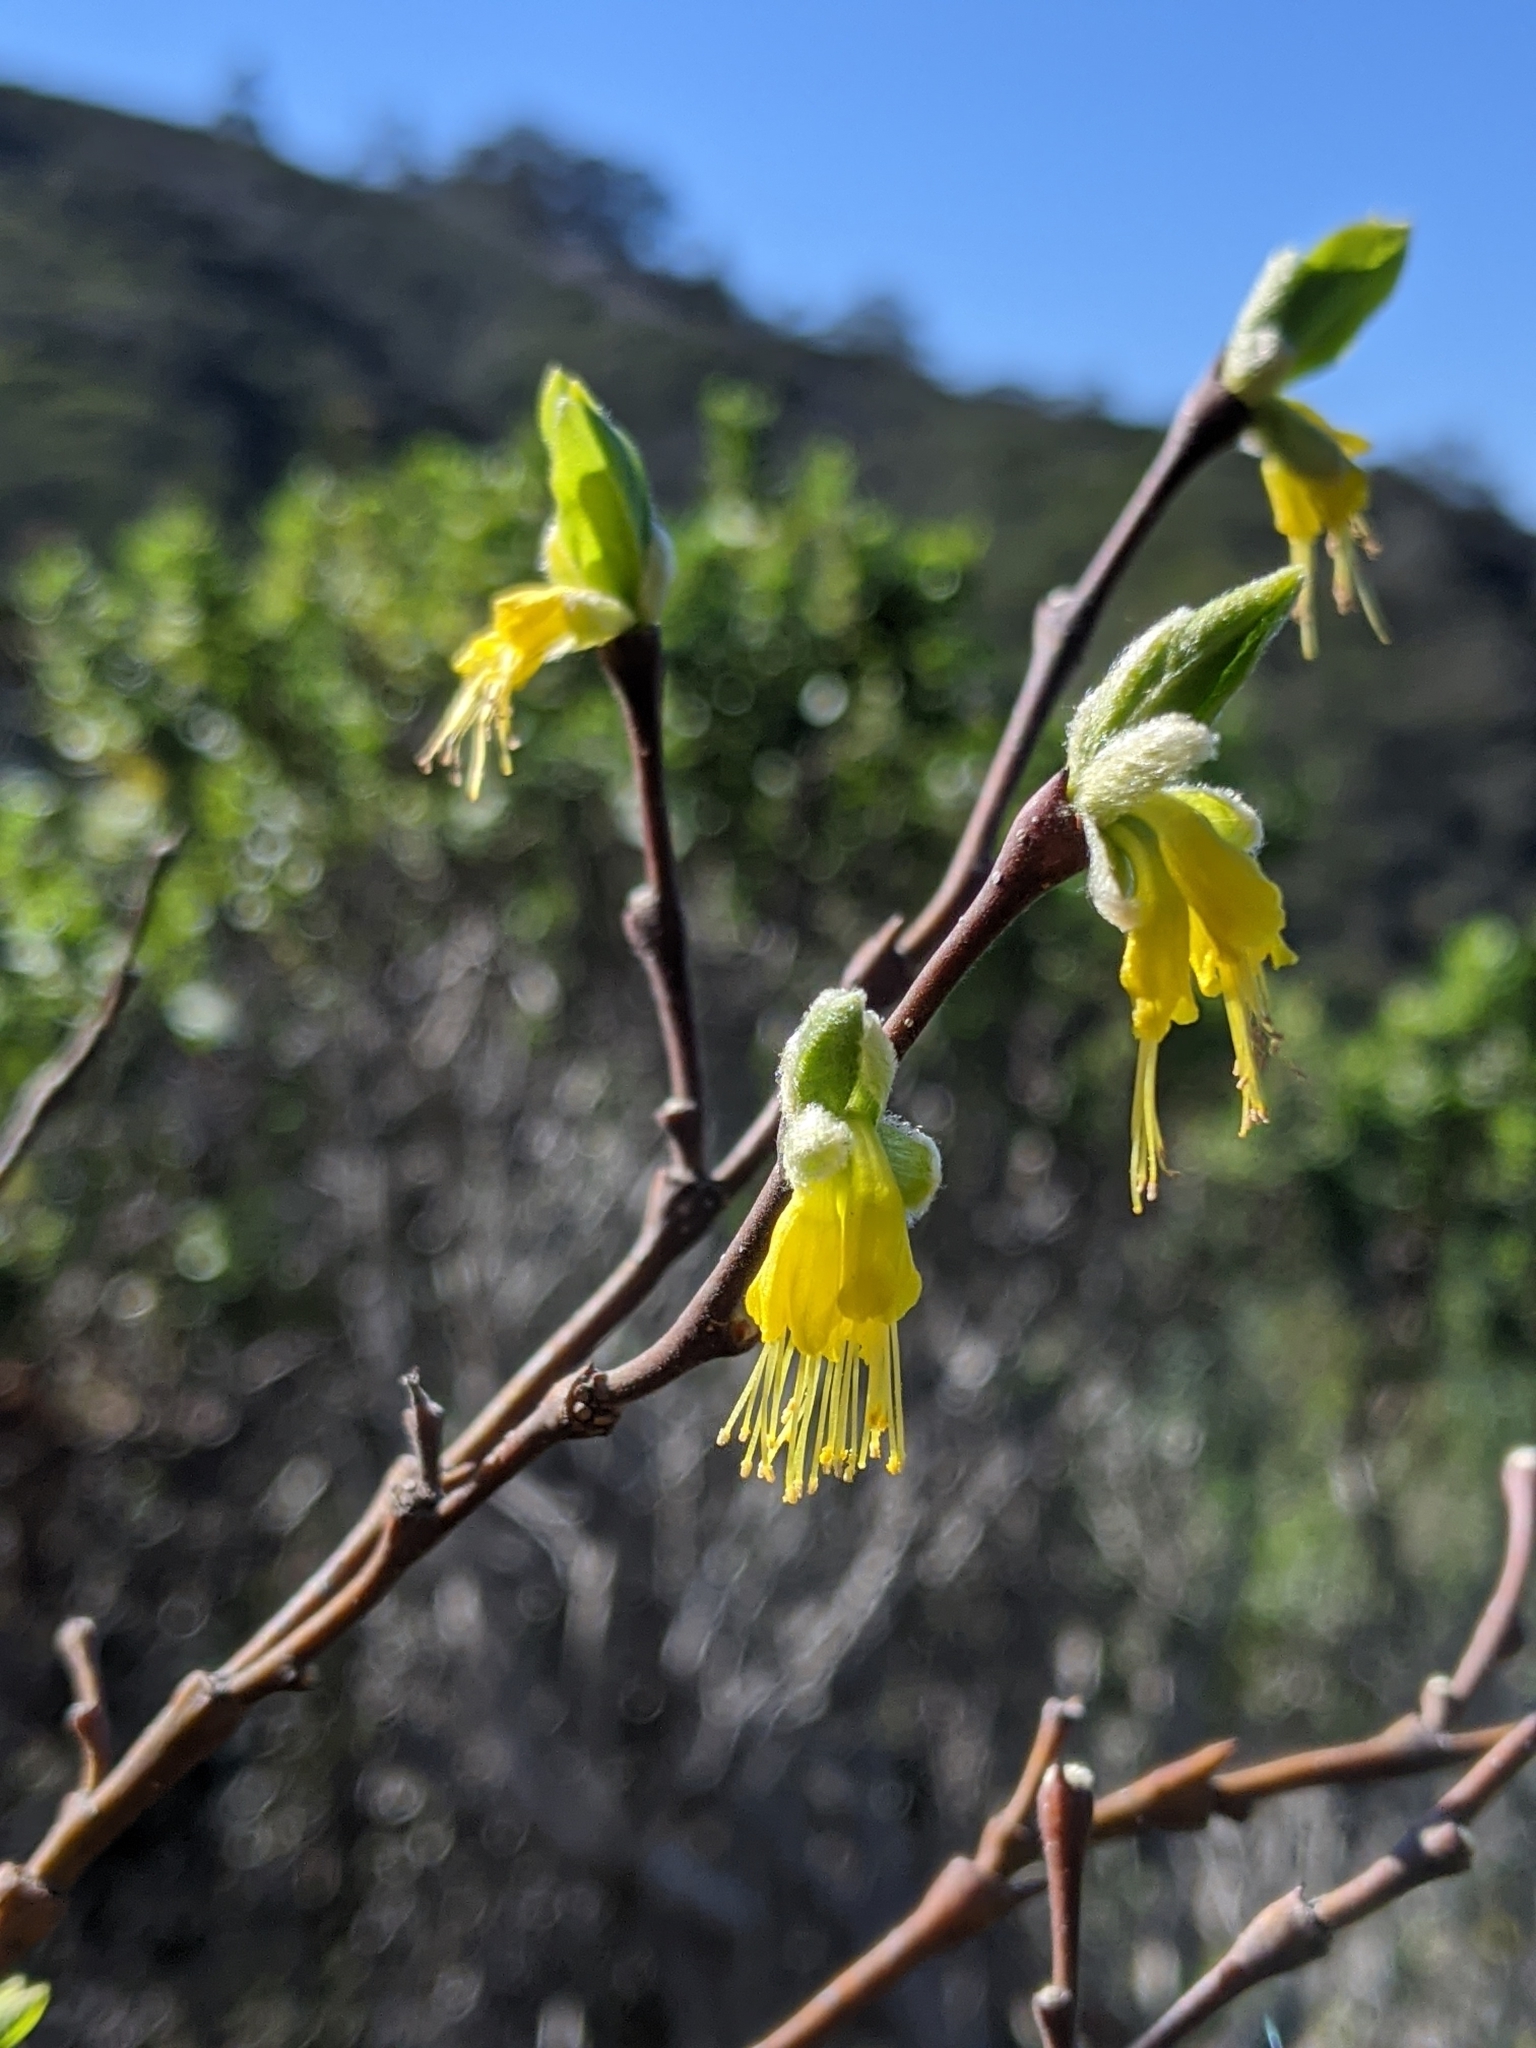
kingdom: Plantae
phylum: Tracheophyta
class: Magnoliopsida
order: Malvales
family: Thymelaeaceae
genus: Dirca
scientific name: Dirca occidentalis
